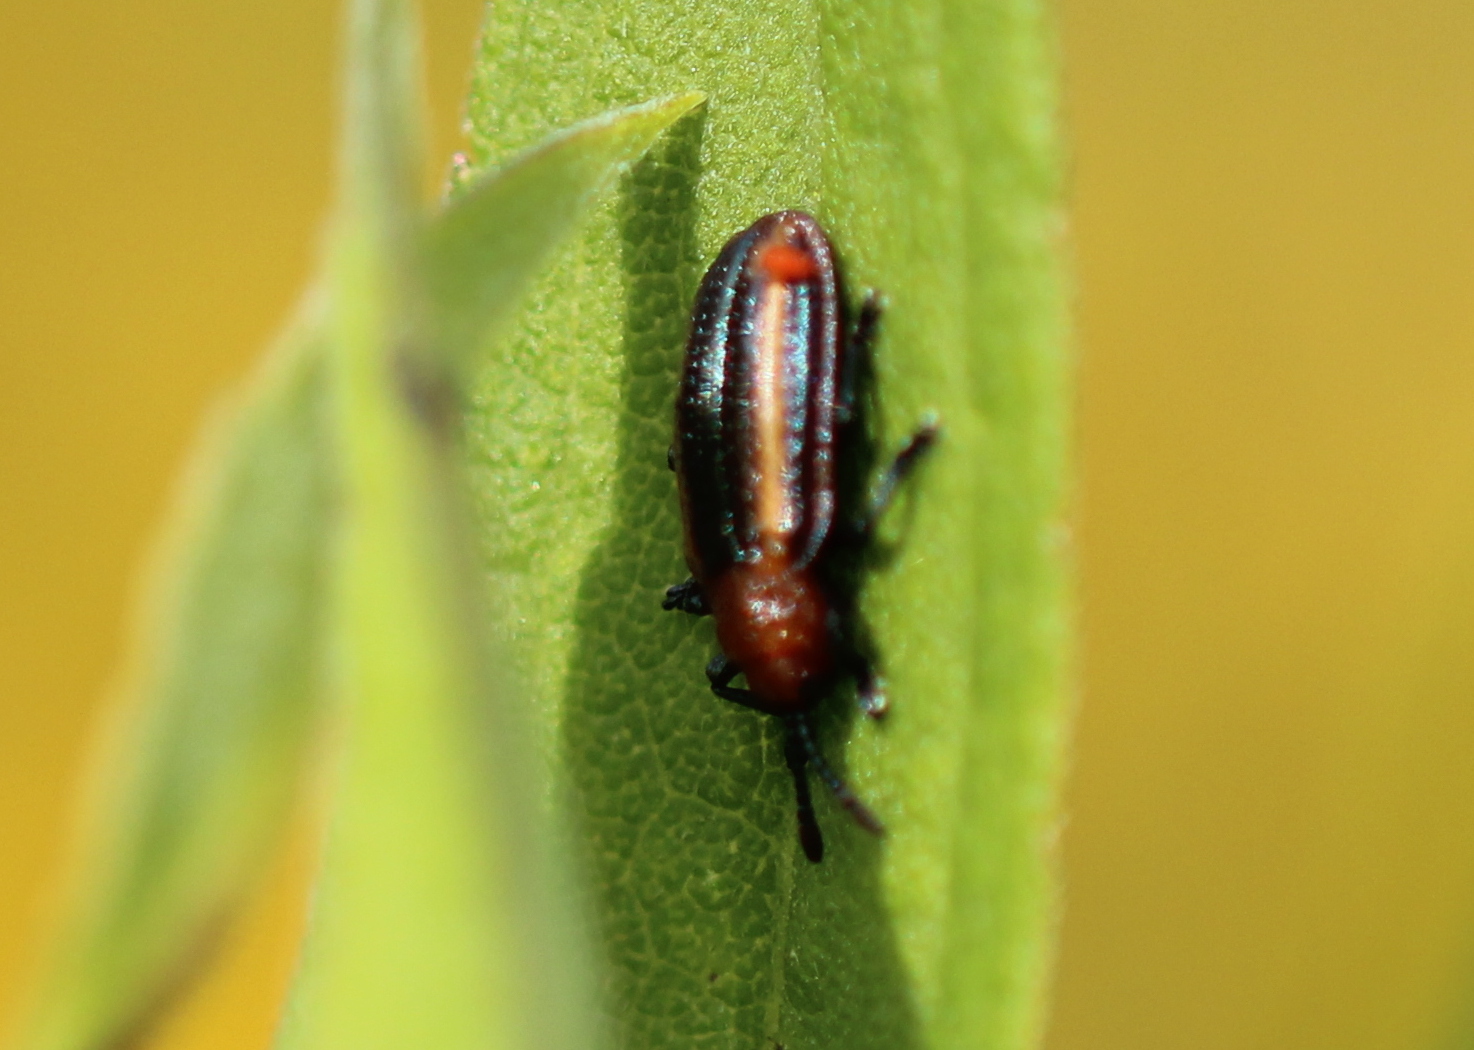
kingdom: Animalia
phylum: Arthropoda
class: Insecta
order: Coleoptera
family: Chrysomelidae
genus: Microrhopala
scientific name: Microrhopala vittata
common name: Goldenrod leaf miner beetle
